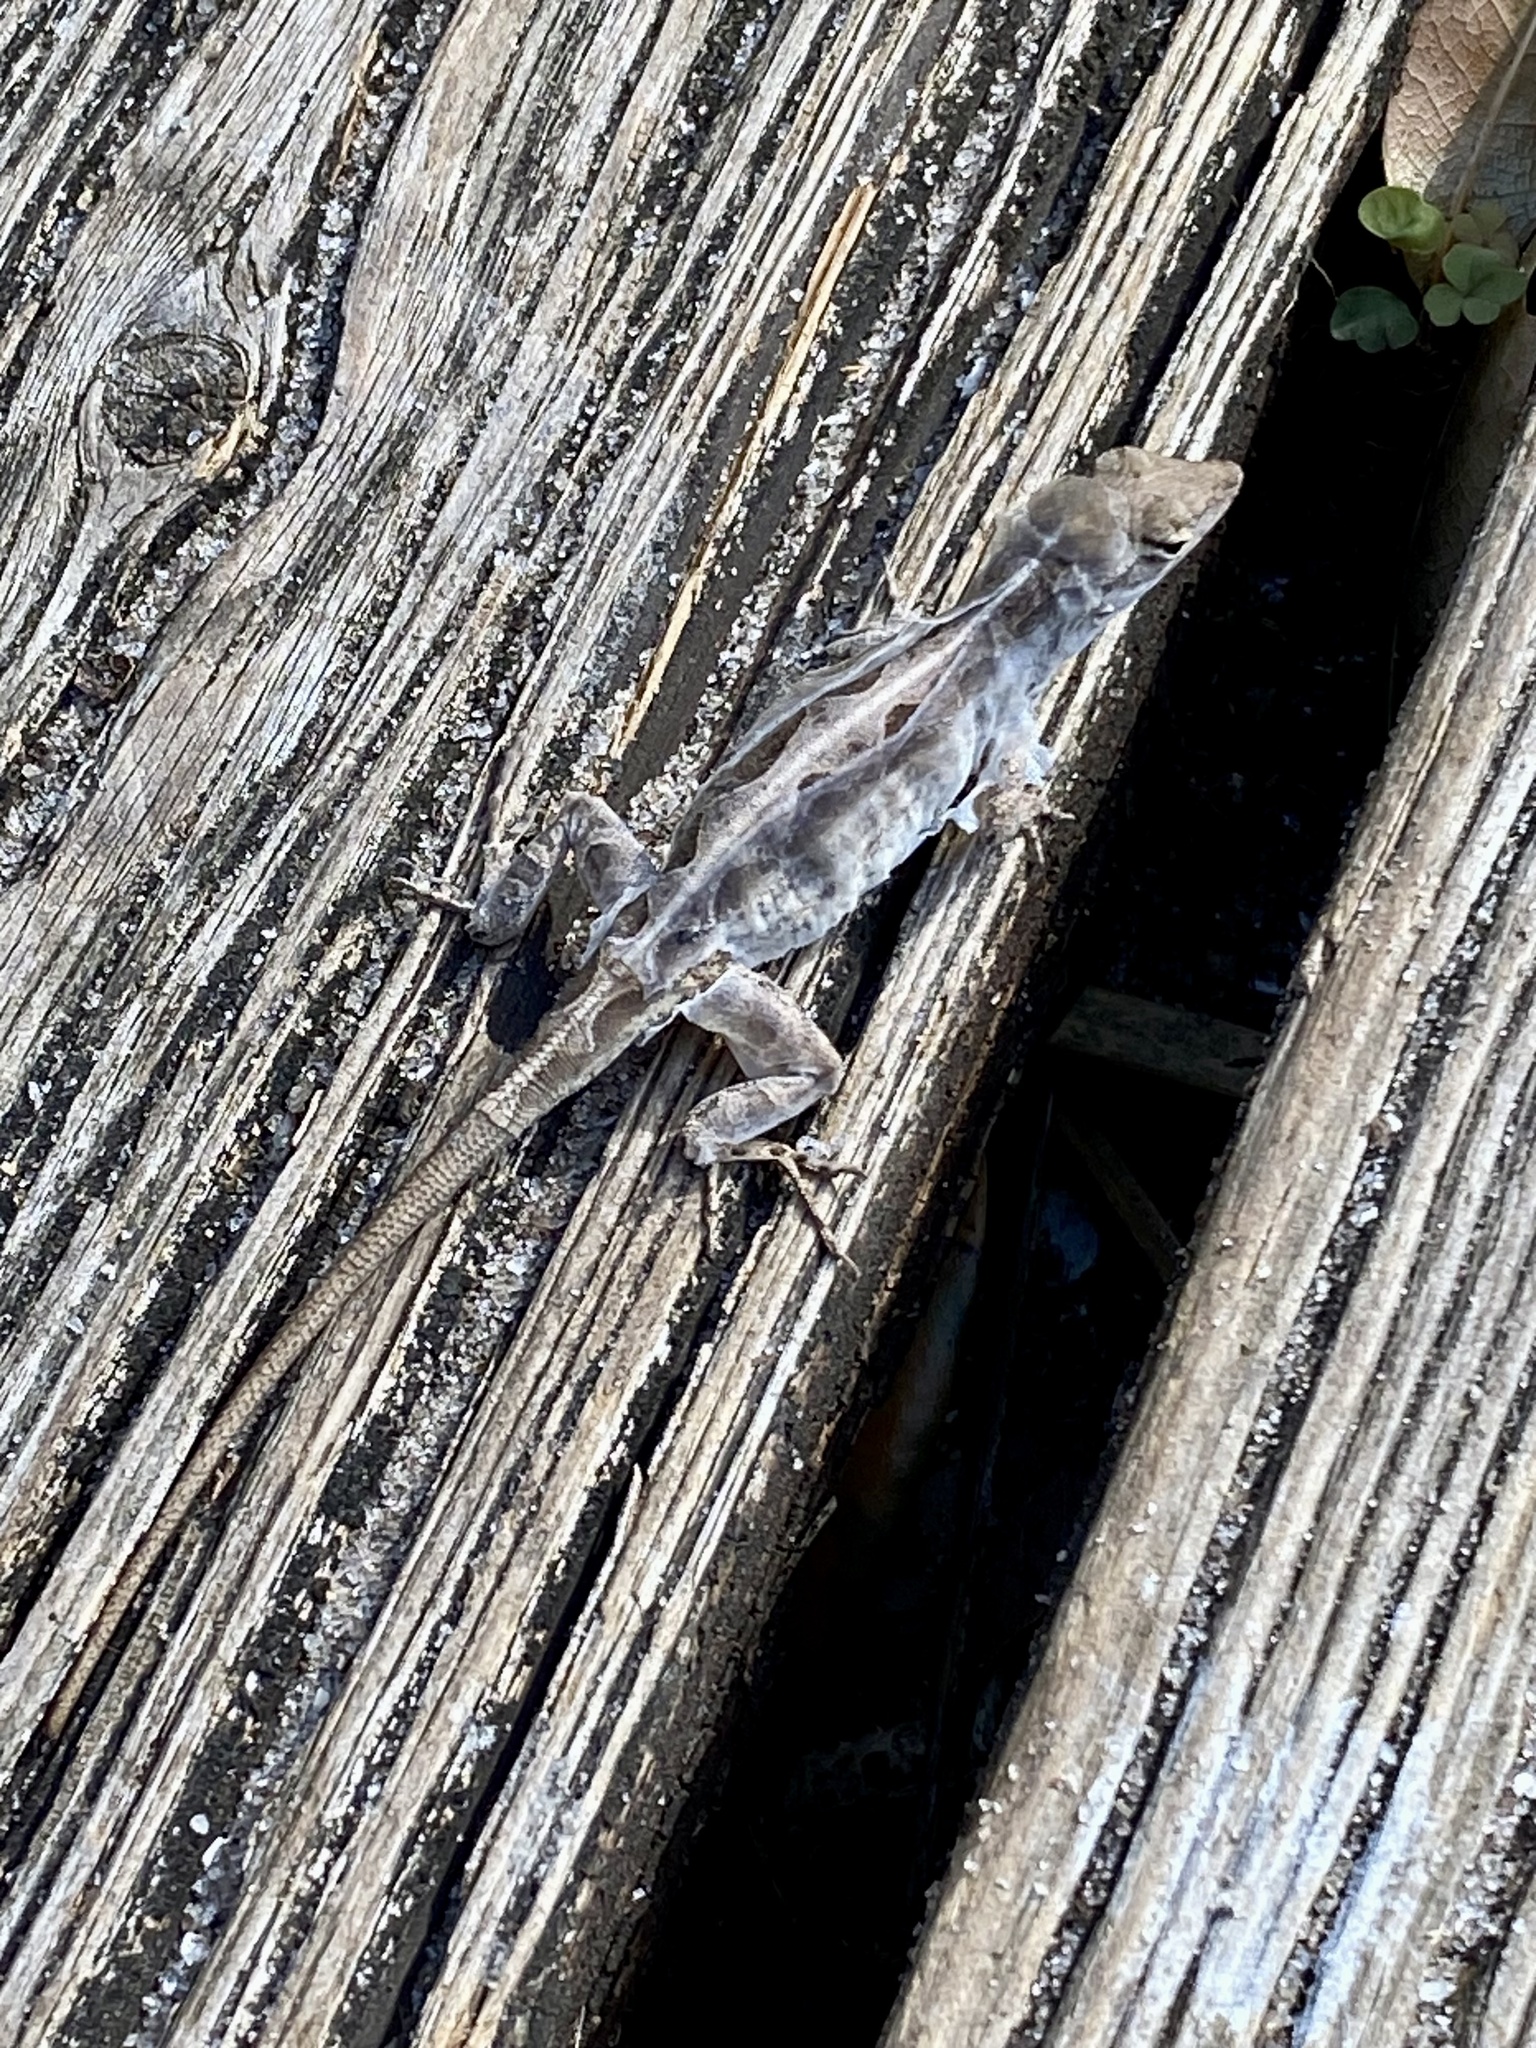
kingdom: Animalia
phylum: Chordata
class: Squamata
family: Dactyloidae
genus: Anolis
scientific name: Anolis sagrei
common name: Brown anole
